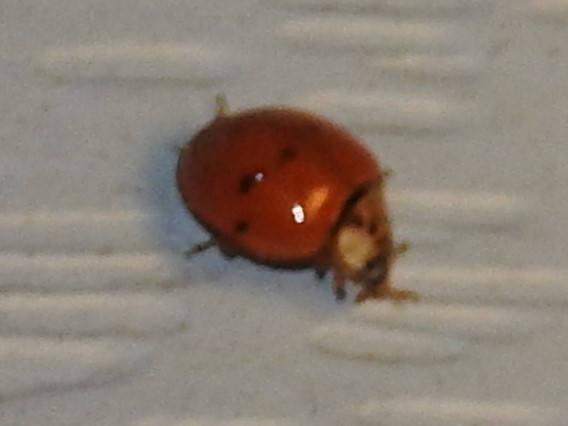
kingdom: Animalia
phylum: Arthropoda
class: Insecta
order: Coleoptera
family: Coccinellidae
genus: Harmonia
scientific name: Harmonia axyridis
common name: Harlequin ladybird
